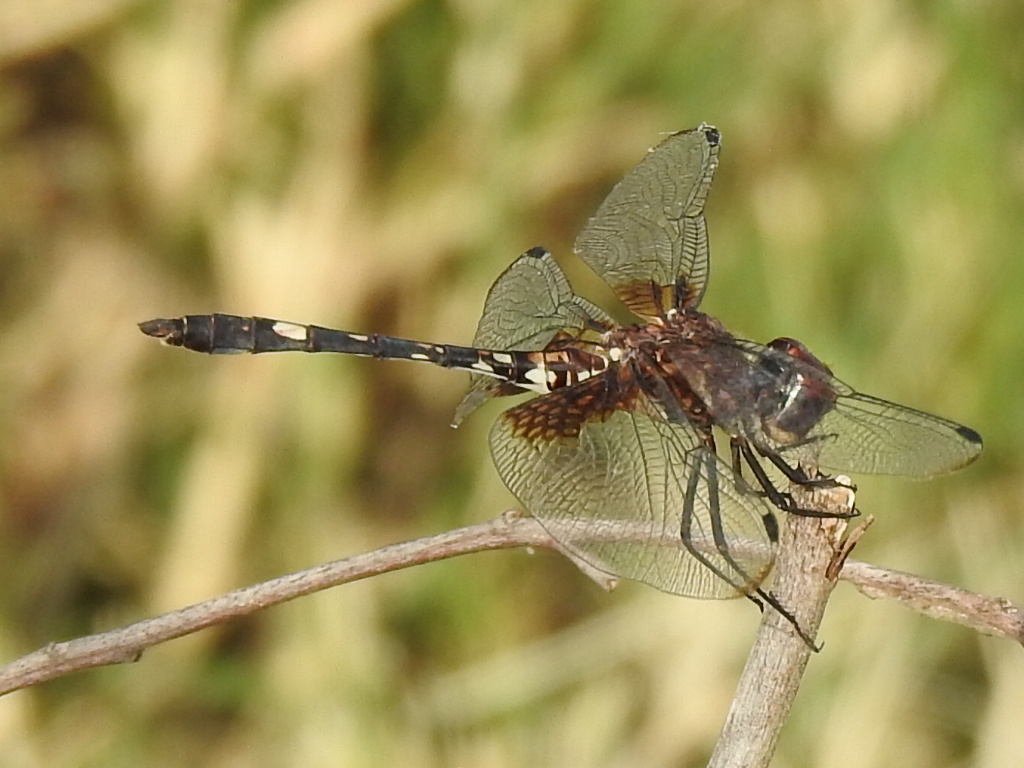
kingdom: Animalia
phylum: Arthropoda
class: Insecta
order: Odonata
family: Libellulidae
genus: Dythemis
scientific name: Dythemis fugax
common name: Checkered setwing
